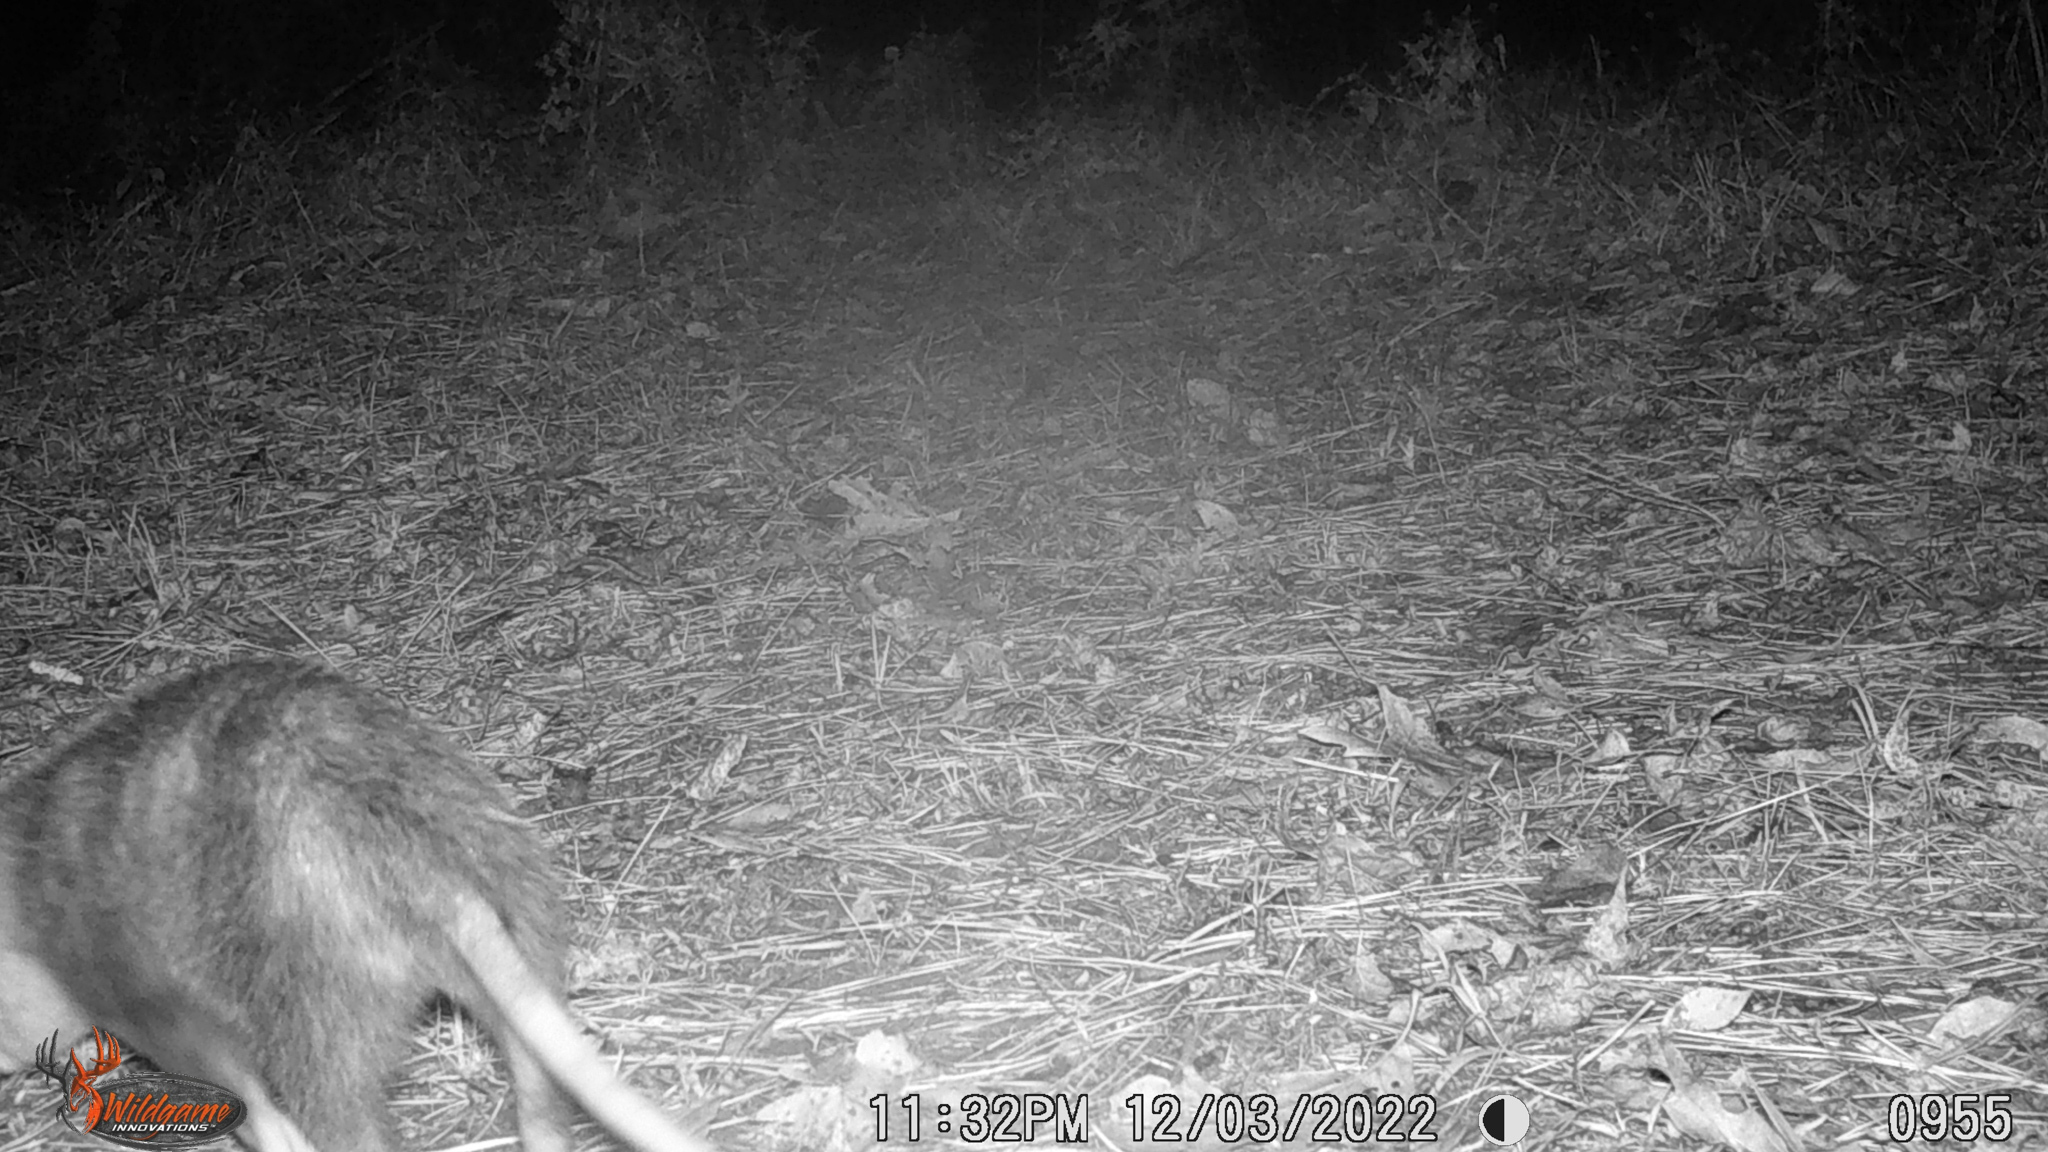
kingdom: Animalia
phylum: Chordata
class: Mammalia
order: Didelphimorphia
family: Didelphidae
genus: Didelphis
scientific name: Didelphis virginiana
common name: Virginia opossum
